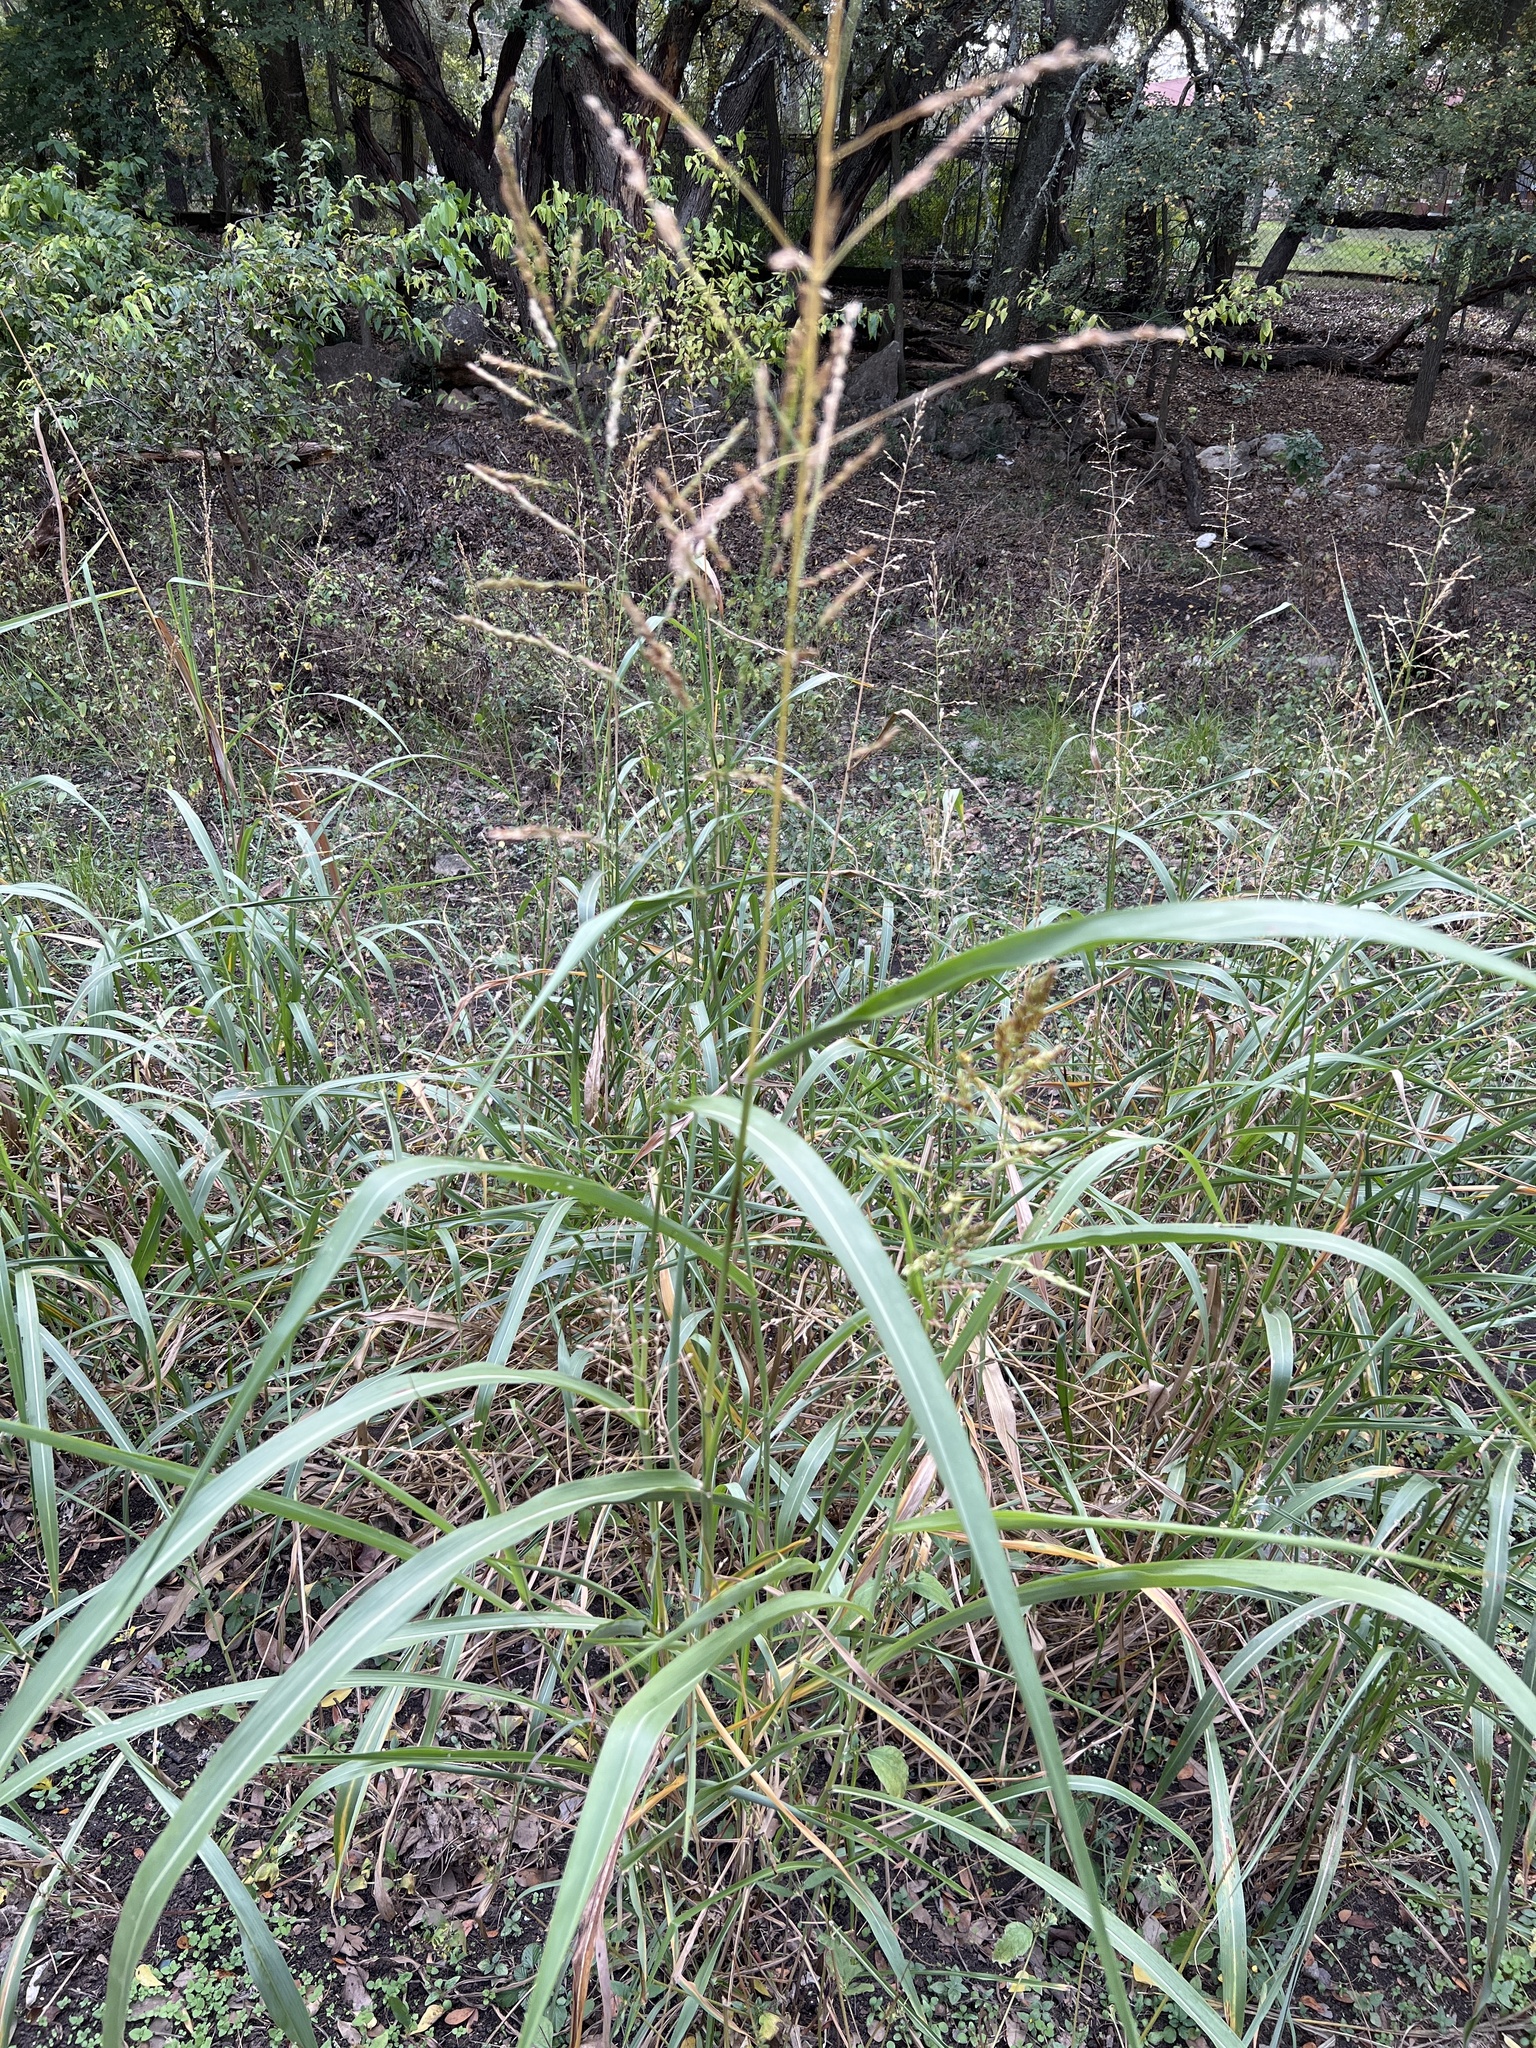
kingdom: Plantae
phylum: Tracheophyta
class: Liliopsida
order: Poales
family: Poaceae
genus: Sorghum
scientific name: Sorghum halepense
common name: Johnson-grass
